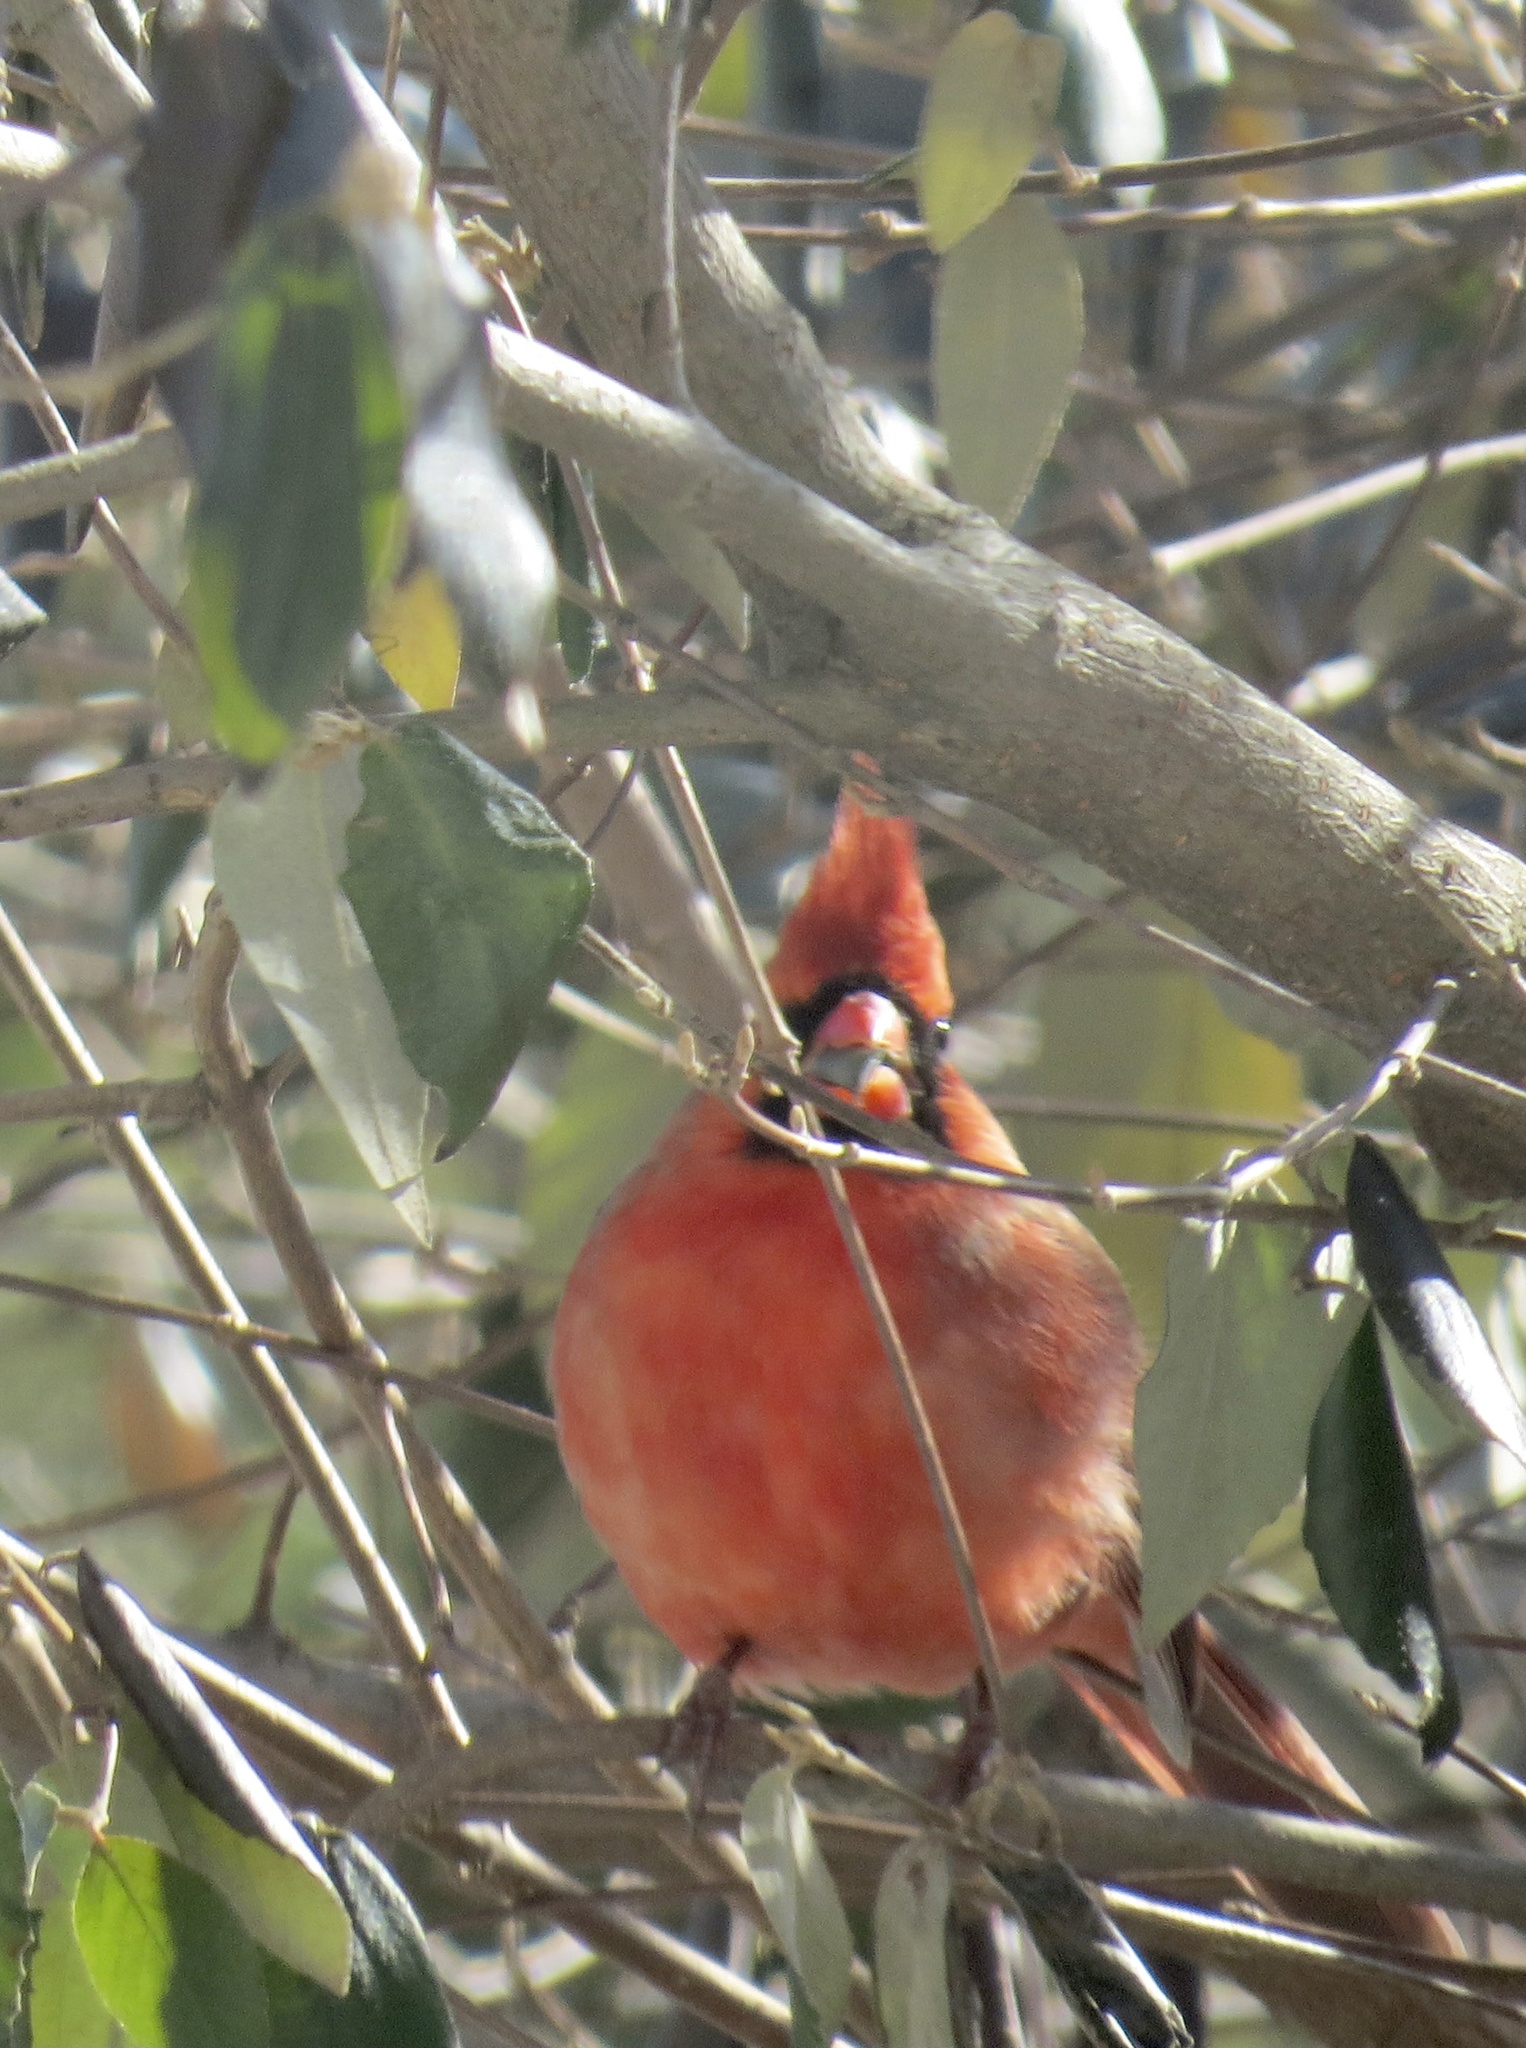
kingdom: Animalia
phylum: Chordata
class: Aves
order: Passeriformes
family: Cardinalidae
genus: Cardinalis
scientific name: Cardinalis cardinalis
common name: Northern cardinal
